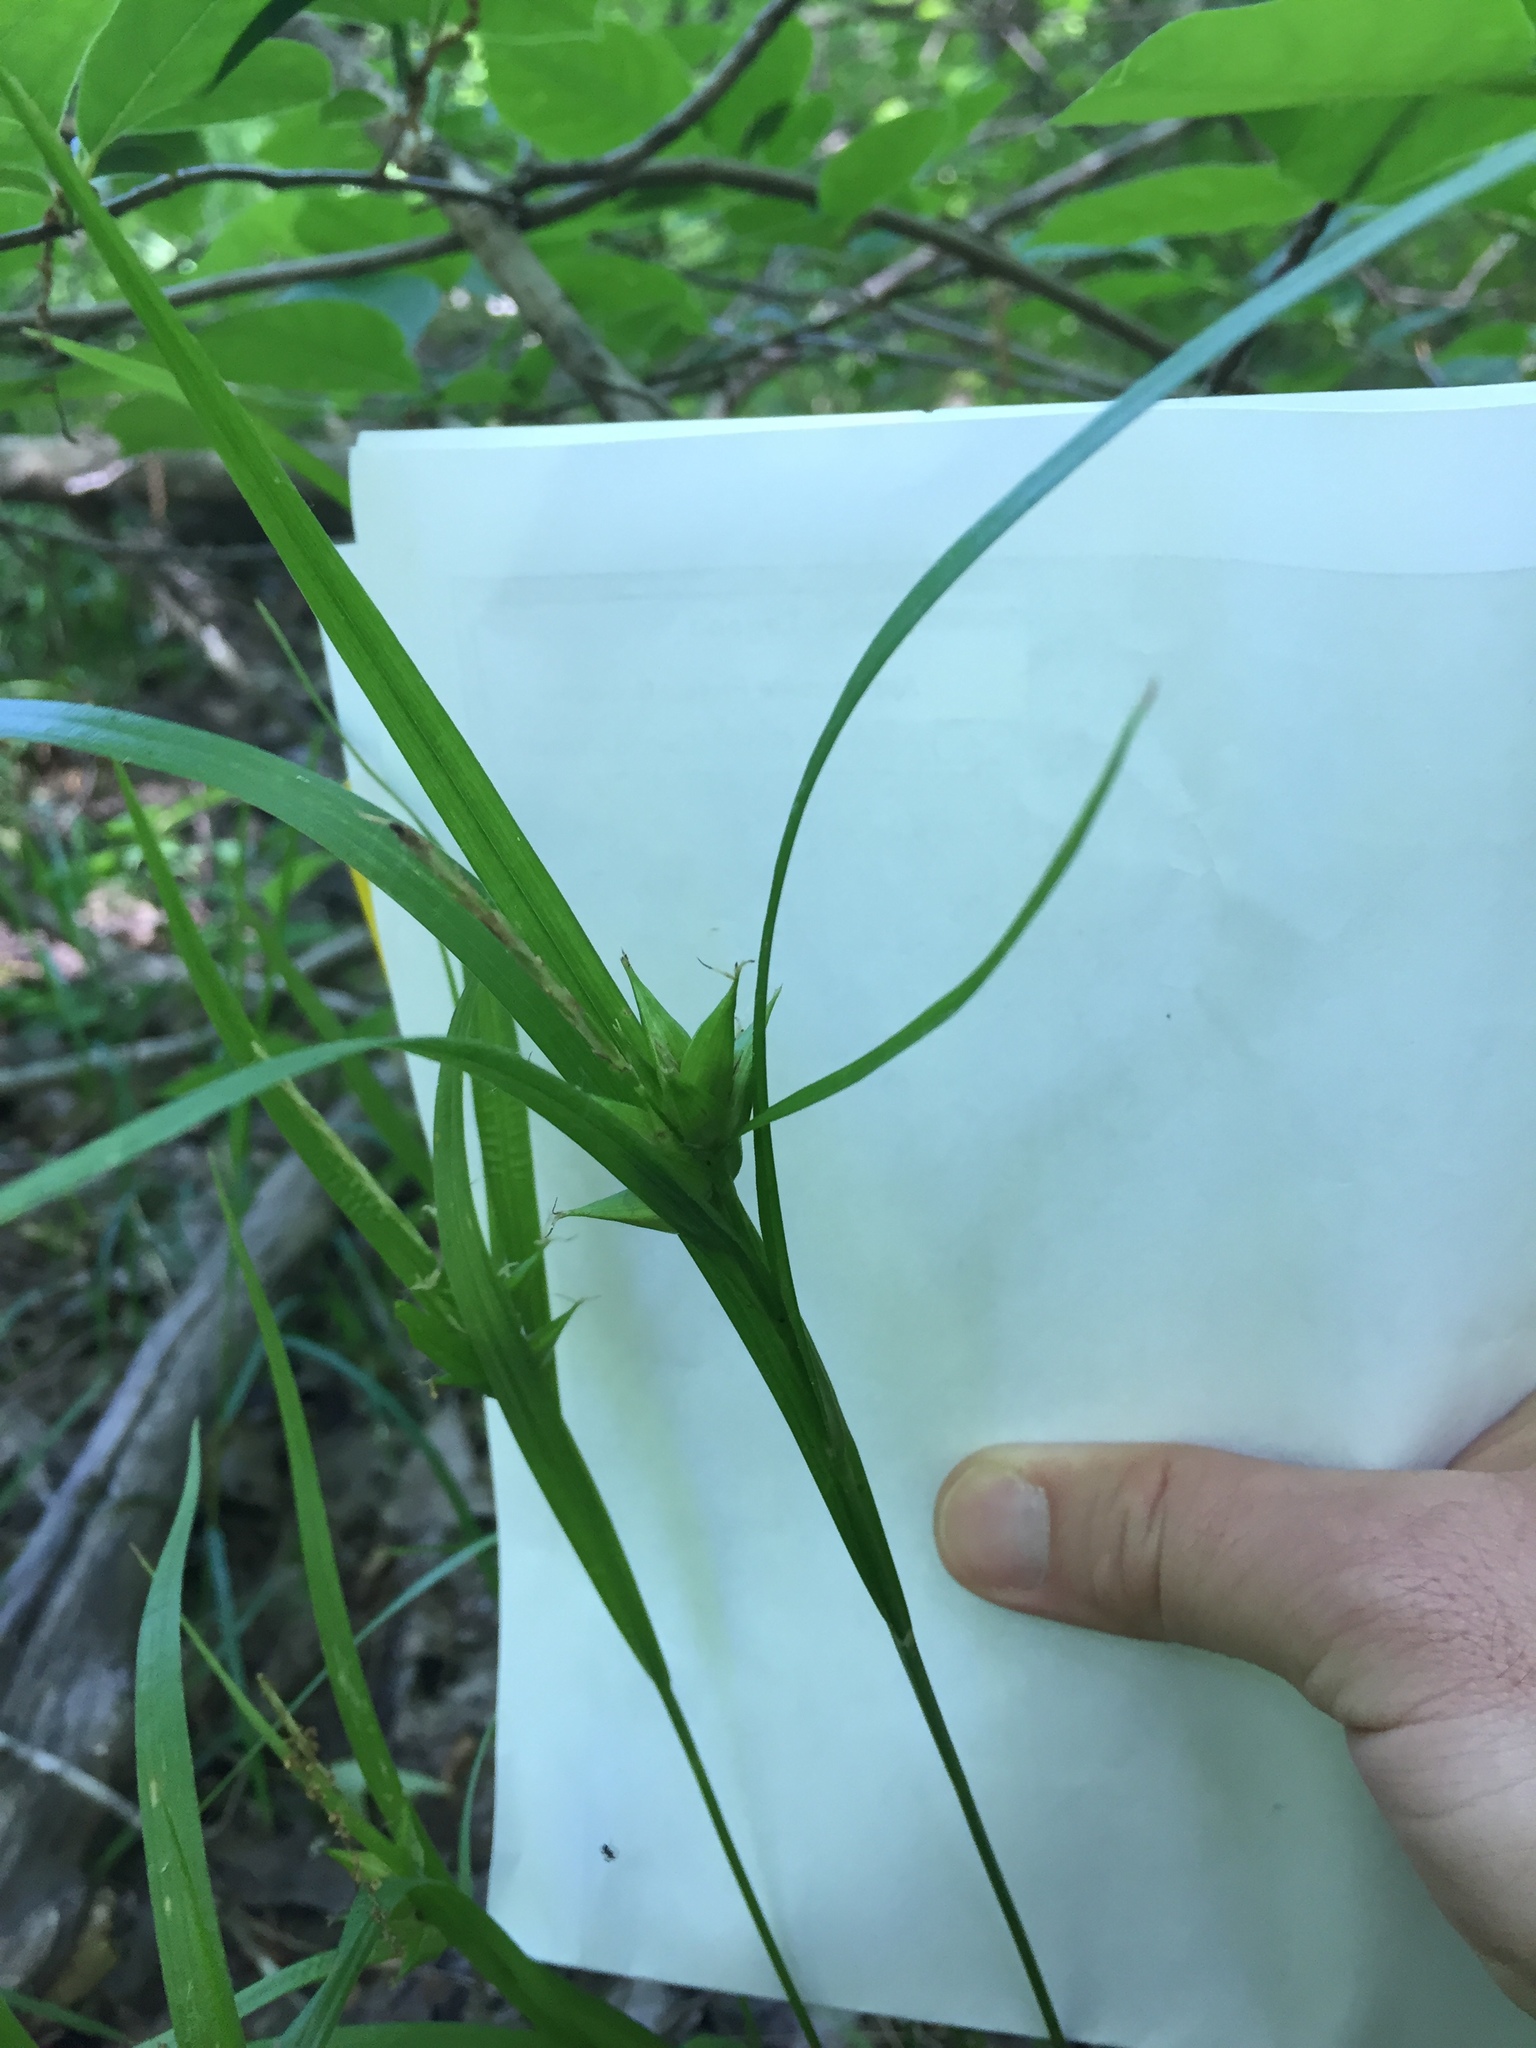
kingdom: Plantae
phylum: Tracheophyta
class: Liliopsida
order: Poales
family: Cyperaceae
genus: Carex
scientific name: Carex intumescens
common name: Greater bladder sedge
